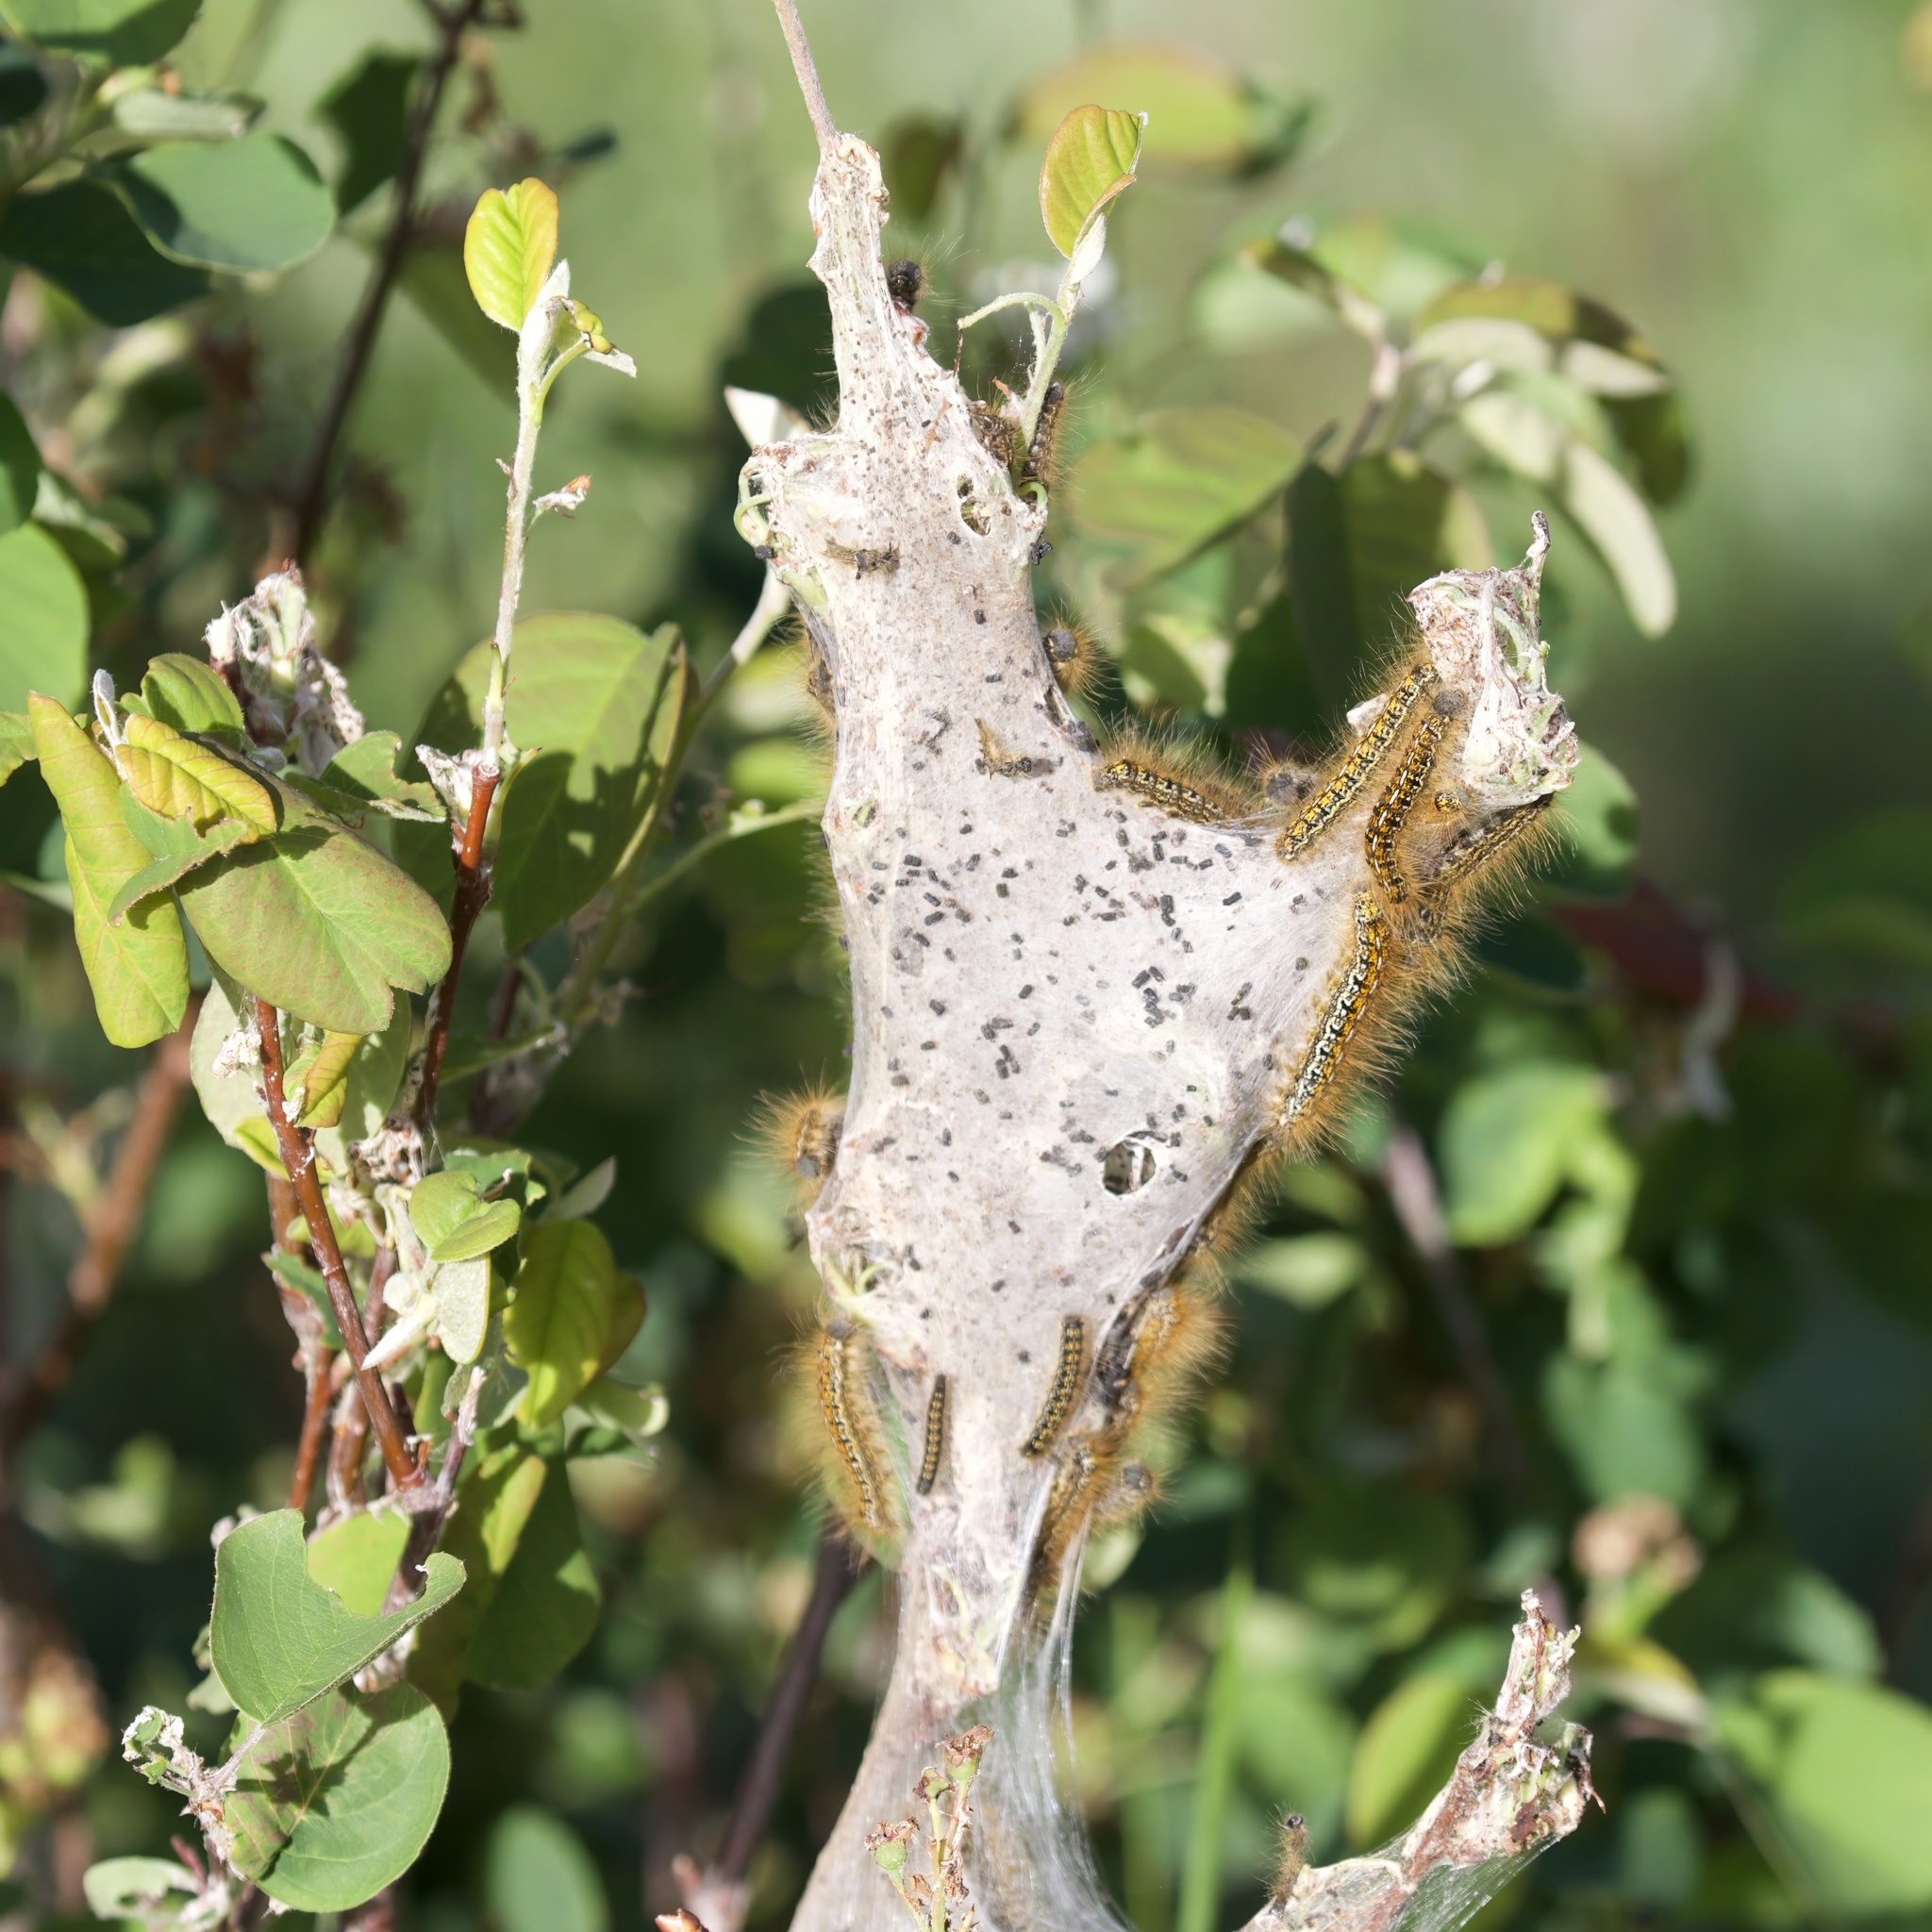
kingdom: Animalia
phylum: Arthropoda
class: Insecta
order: Lepidoptera
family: Lasiocampidae
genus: Malacosoma
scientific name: Malacosoma californica
